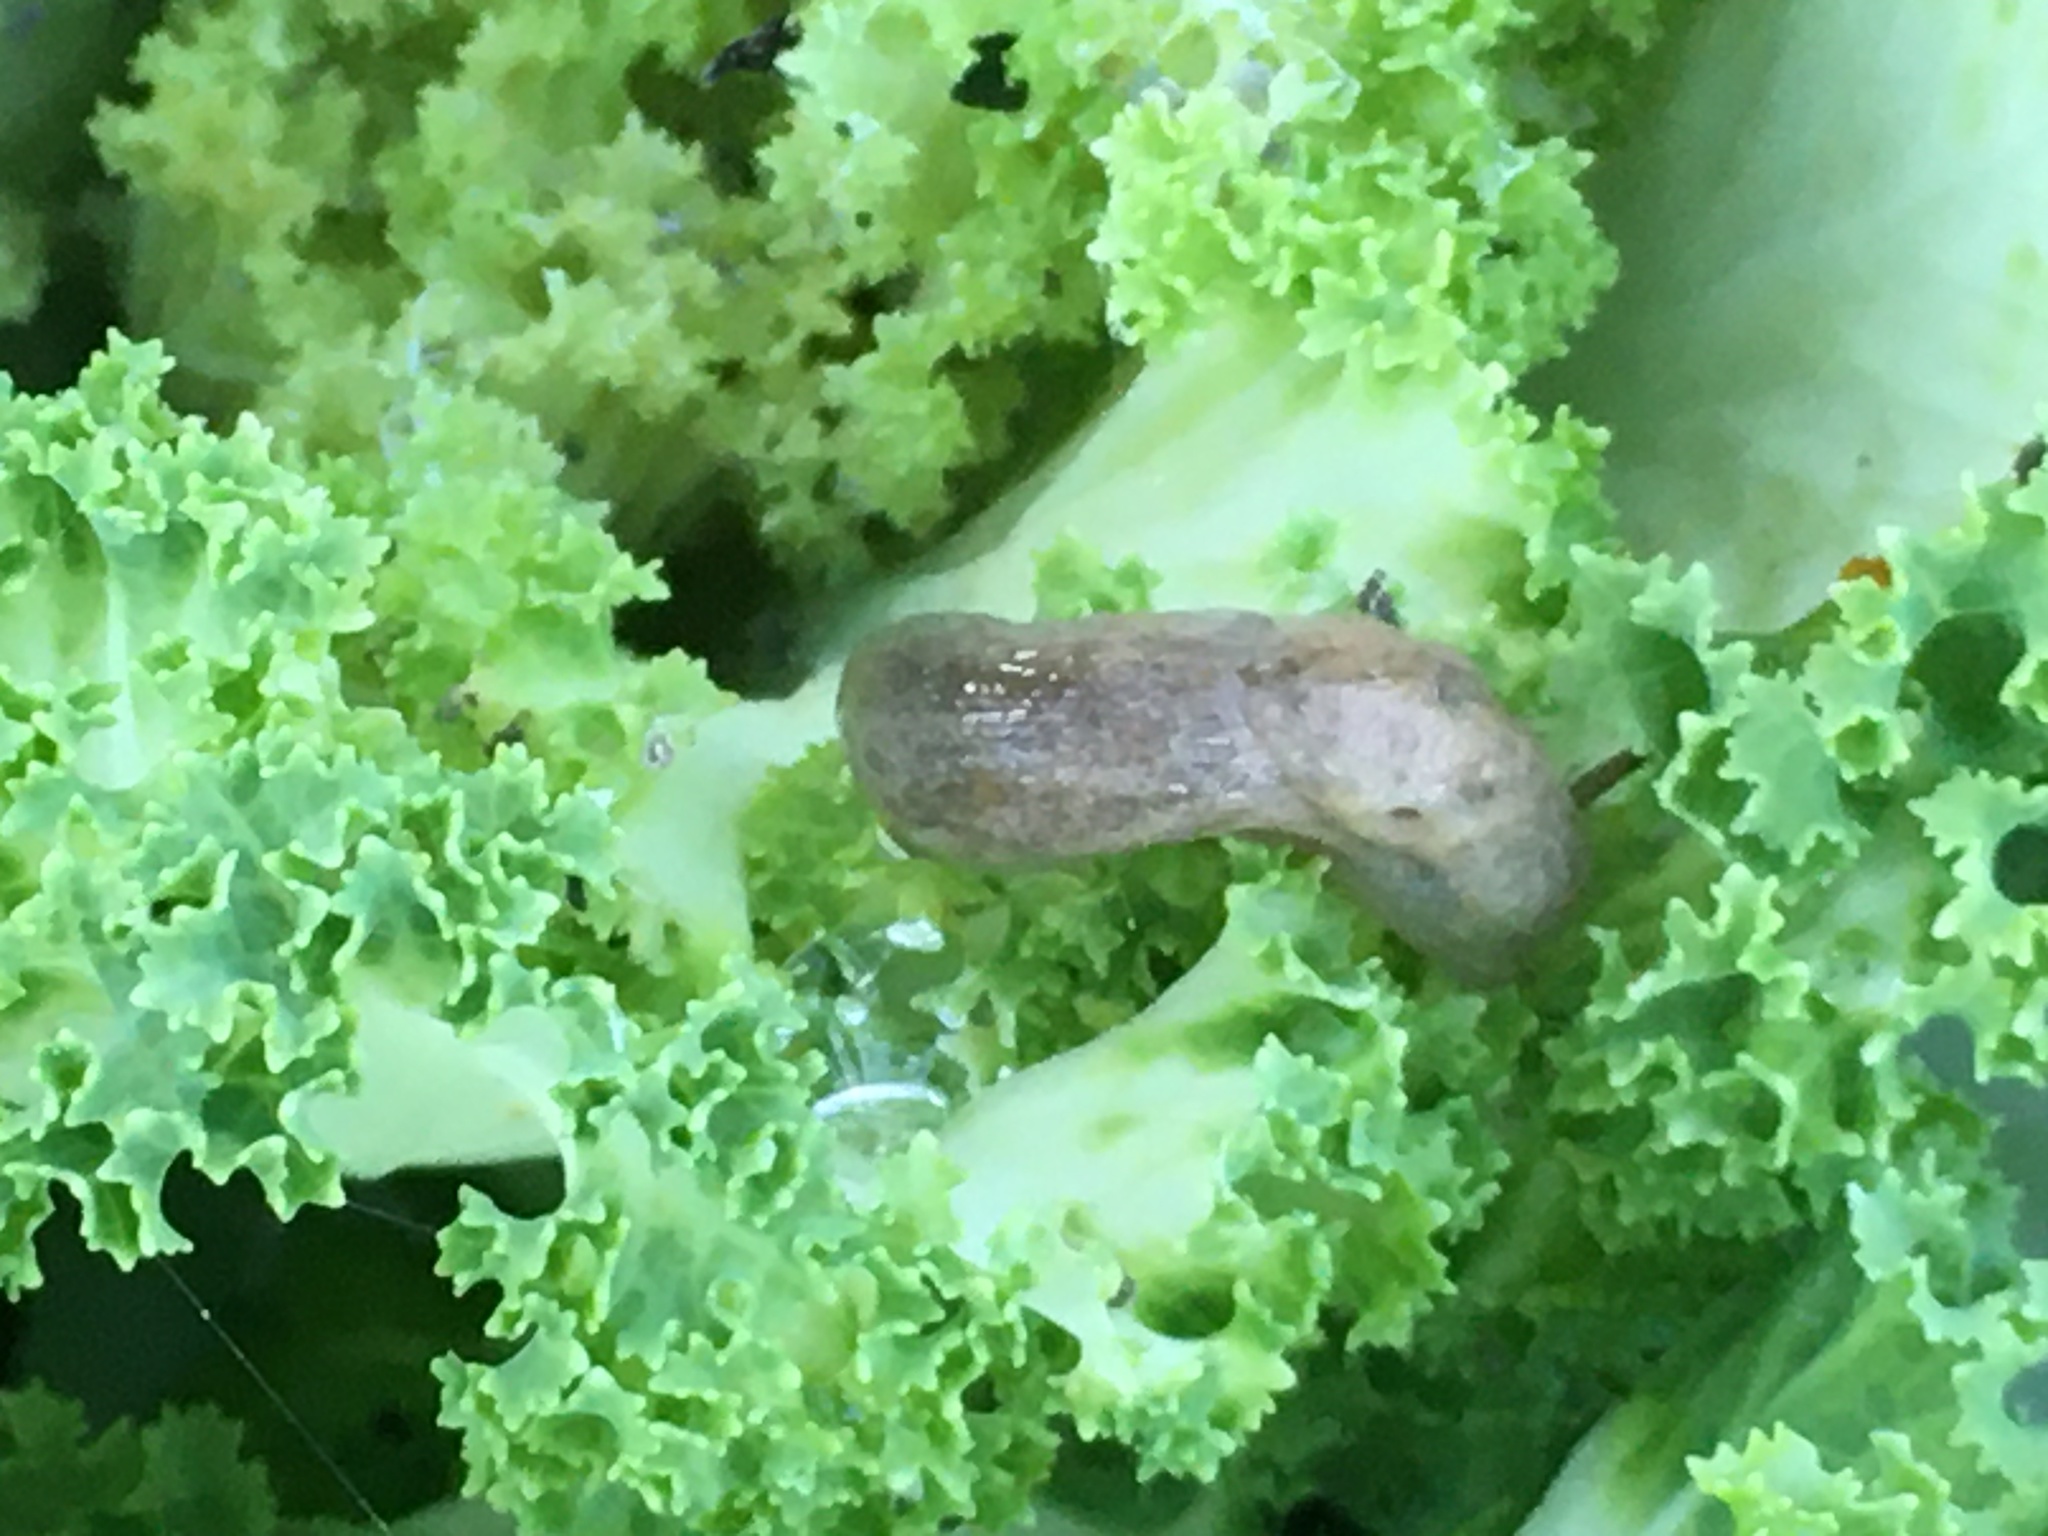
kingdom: Animalia
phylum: Mollusca
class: Gastropoda
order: Stylommatophora
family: Agriolimacidae
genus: Deroceras
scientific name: Deroceras reticulatum
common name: Gray field slug
